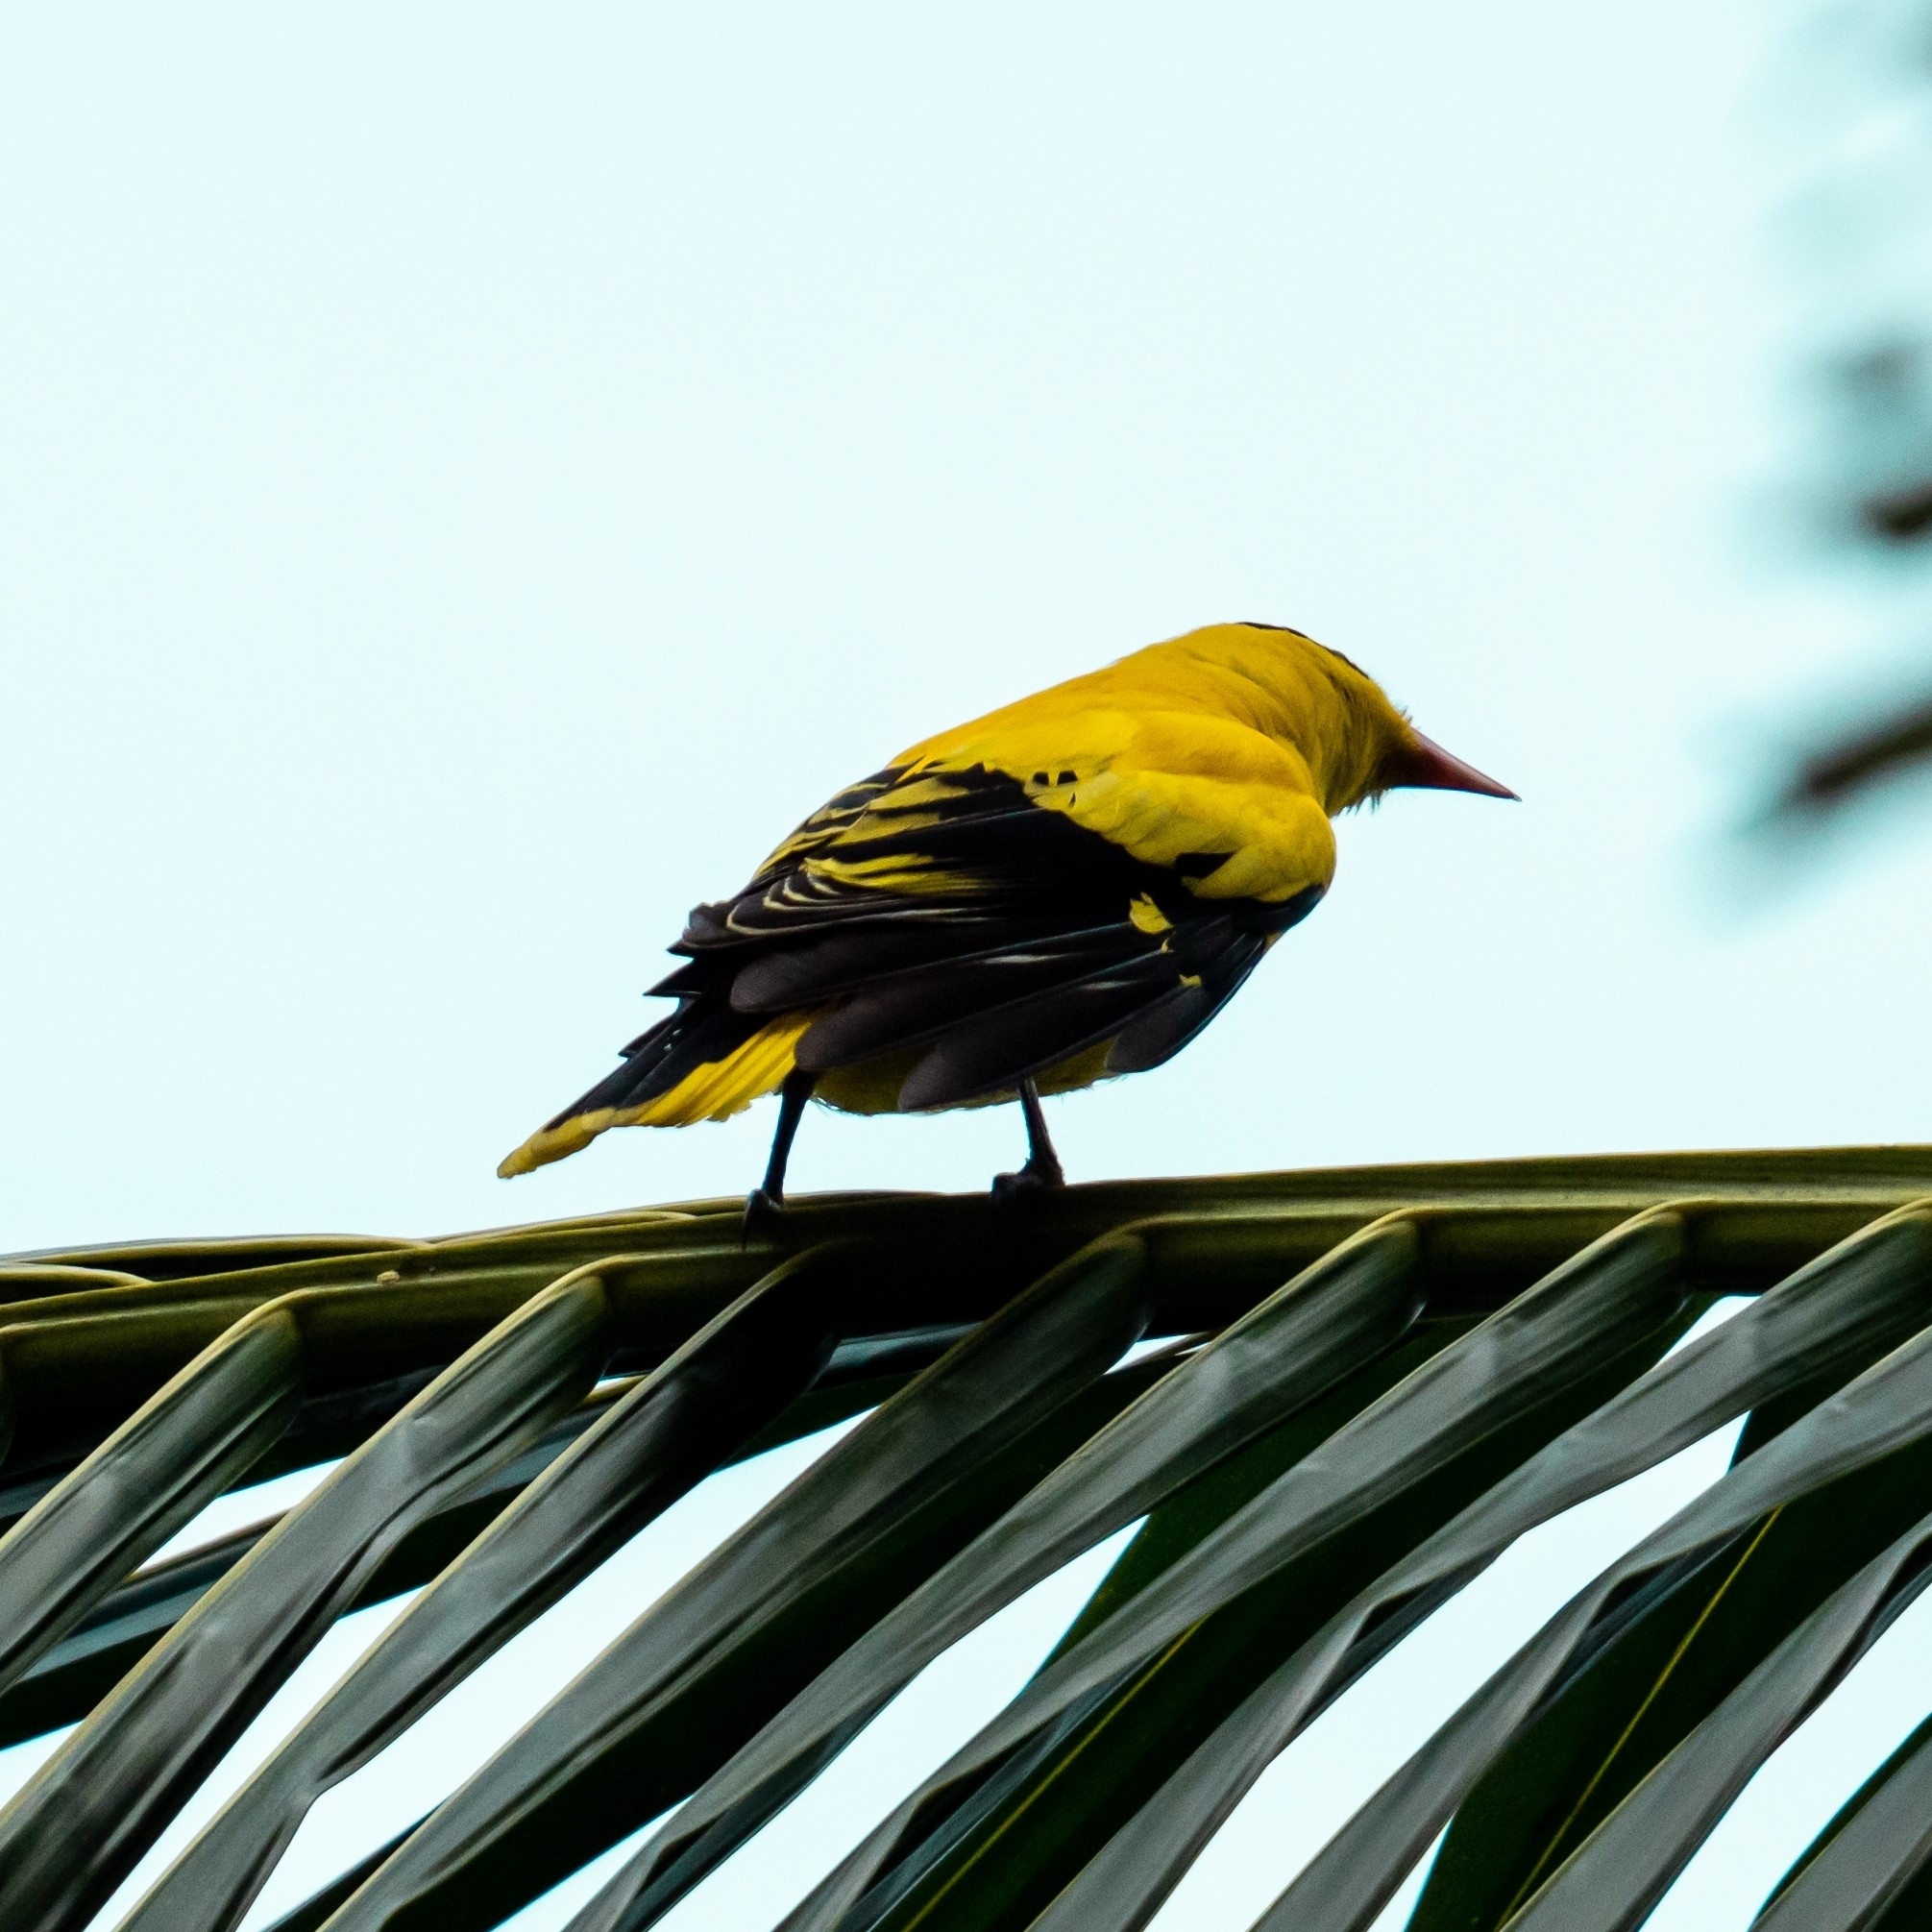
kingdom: Animalia
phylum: Chordata
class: Aves
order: Passeriformes
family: Oriolidae
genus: Oriolus
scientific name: Oriolus chinensis
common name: Black-naped oriole
